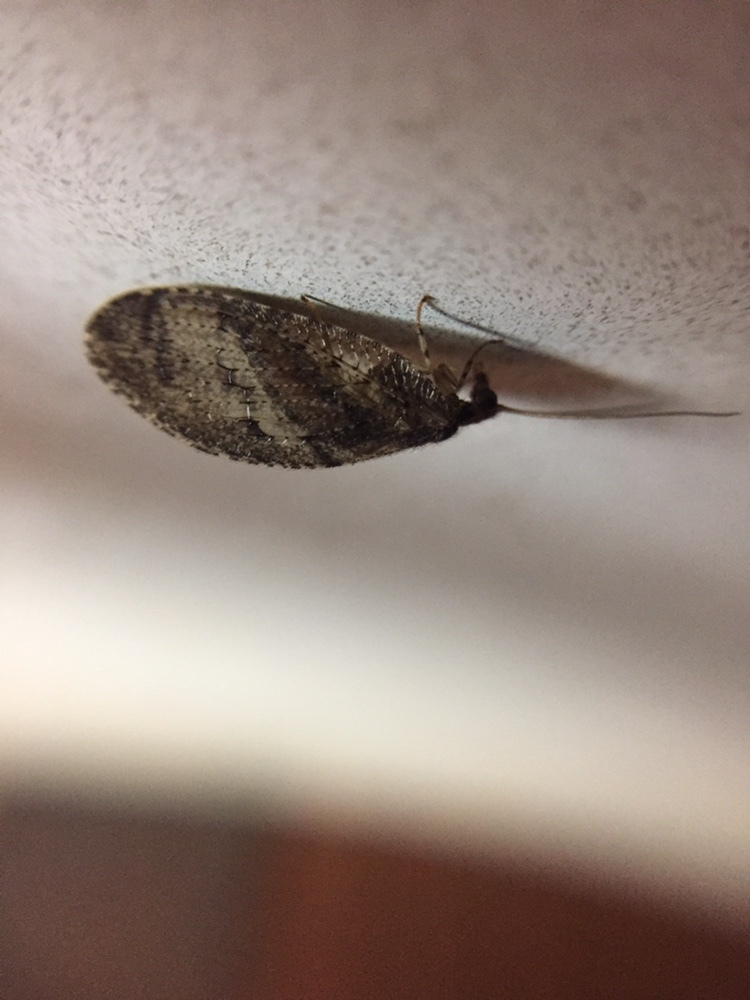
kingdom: Animalia
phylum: Arthropoda
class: Insecta
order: Neuroptera
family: Hemerobiidae
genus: Wesmaelius
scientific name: Wesmaelius subnebulosus
